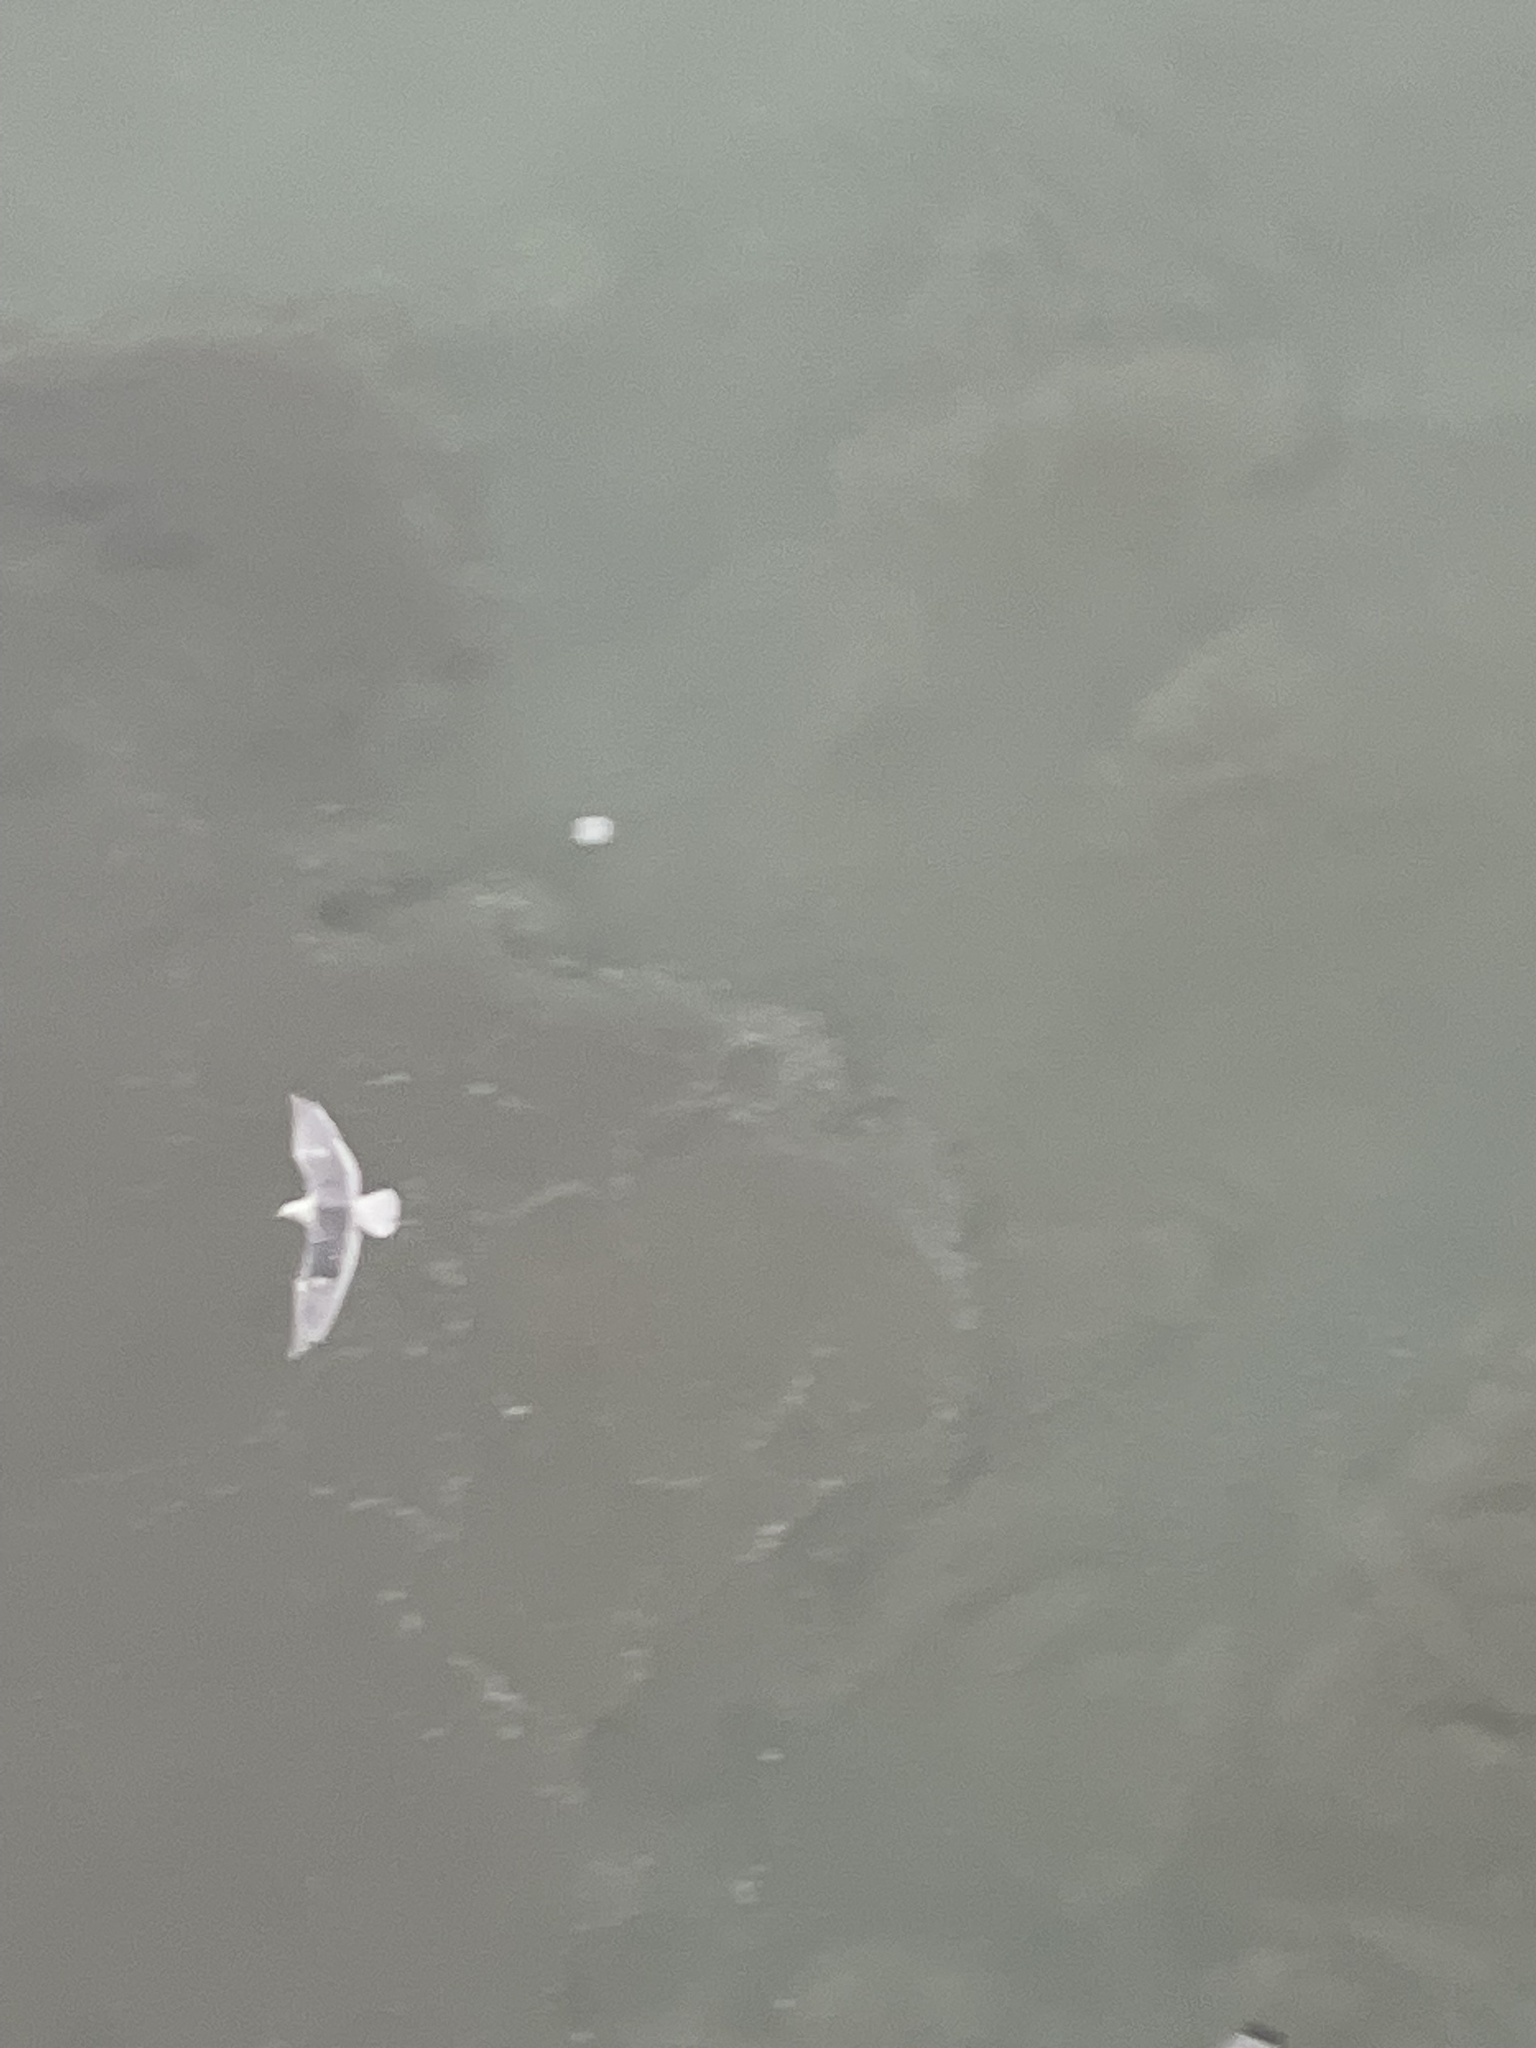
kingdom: Animalia
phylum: Chordata
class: Aves
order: Charadriiformes
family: Laridae
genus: Larus
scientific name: Larus glaucescens
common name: Glaucous-winged gull
